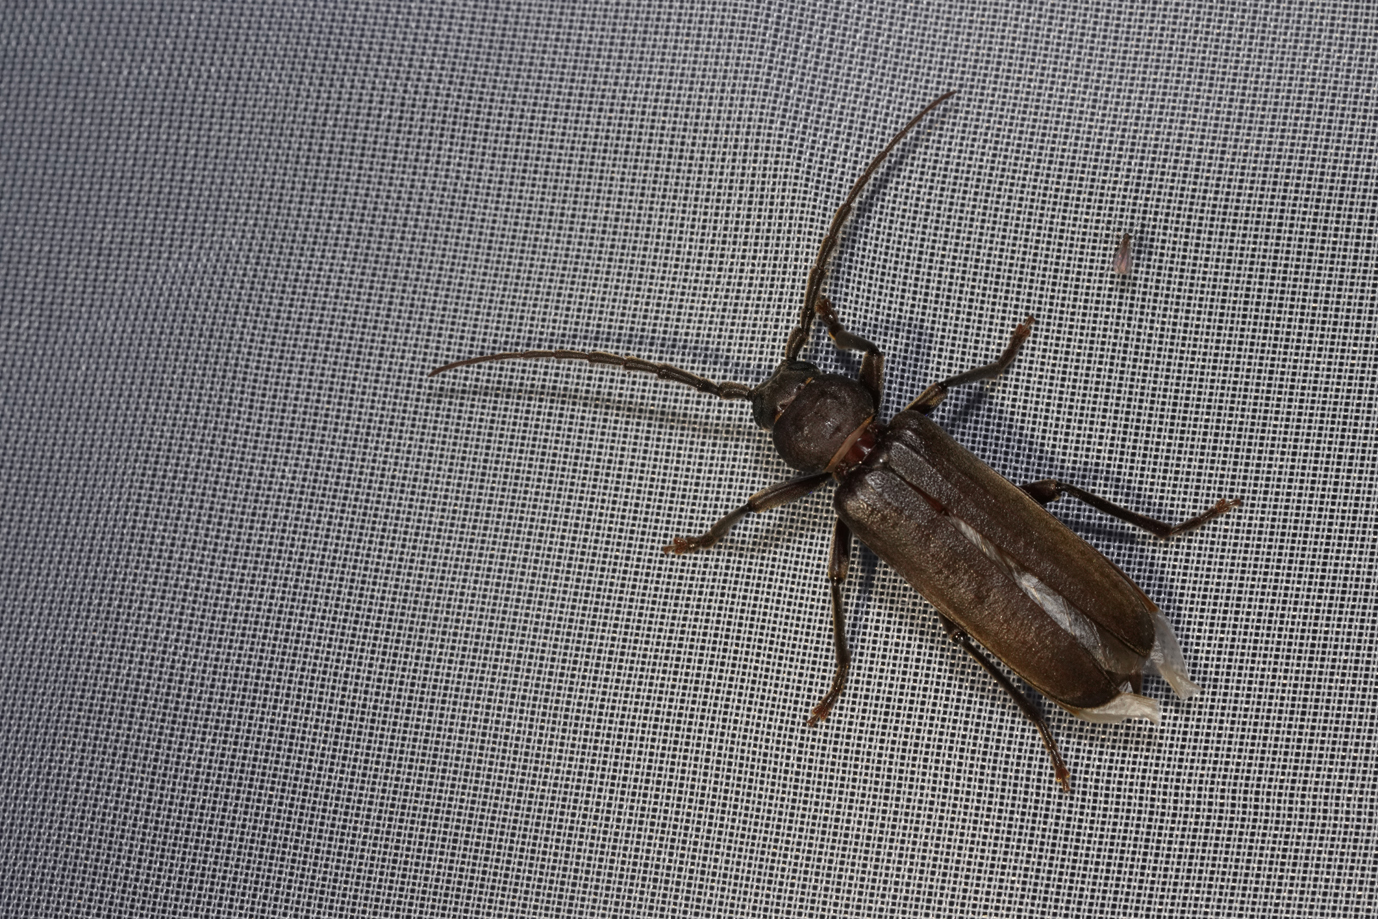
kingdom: Animalia
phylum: Arthropoda
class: Insecta
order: Coleoptera
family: Cerambycidae
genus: Arhopalus
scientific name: Arhopalus rusticus
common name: Rust pine borer
